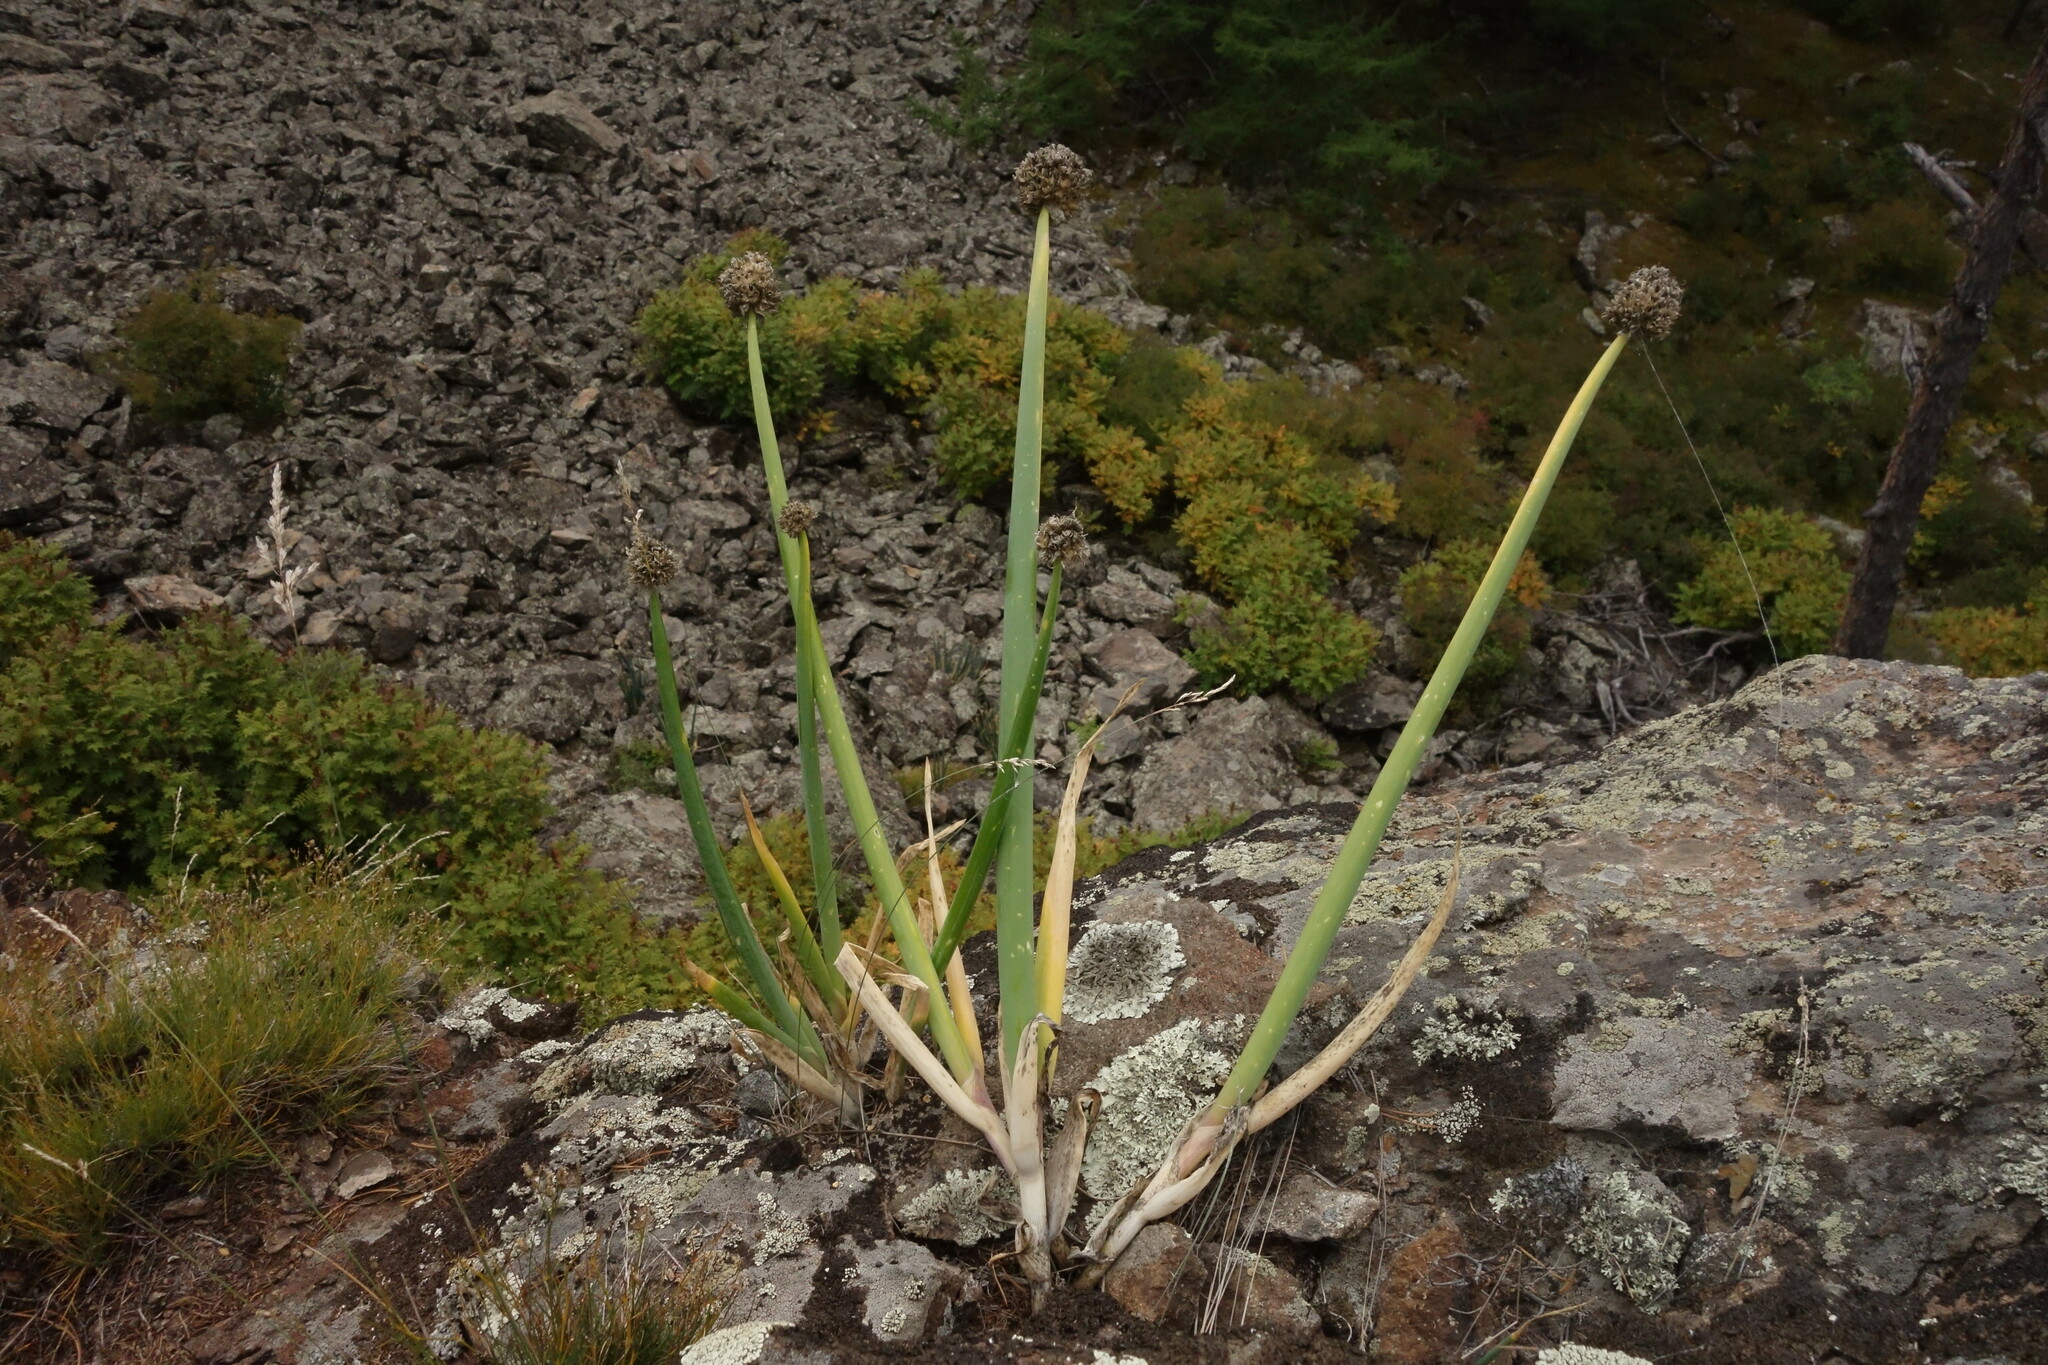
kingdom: Plantae
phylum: Tracheophyta
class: Liliopsida
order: Asparagales
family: Amaryllidaceae
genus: Allium
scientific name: Allium altaicum
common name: Altai onion
